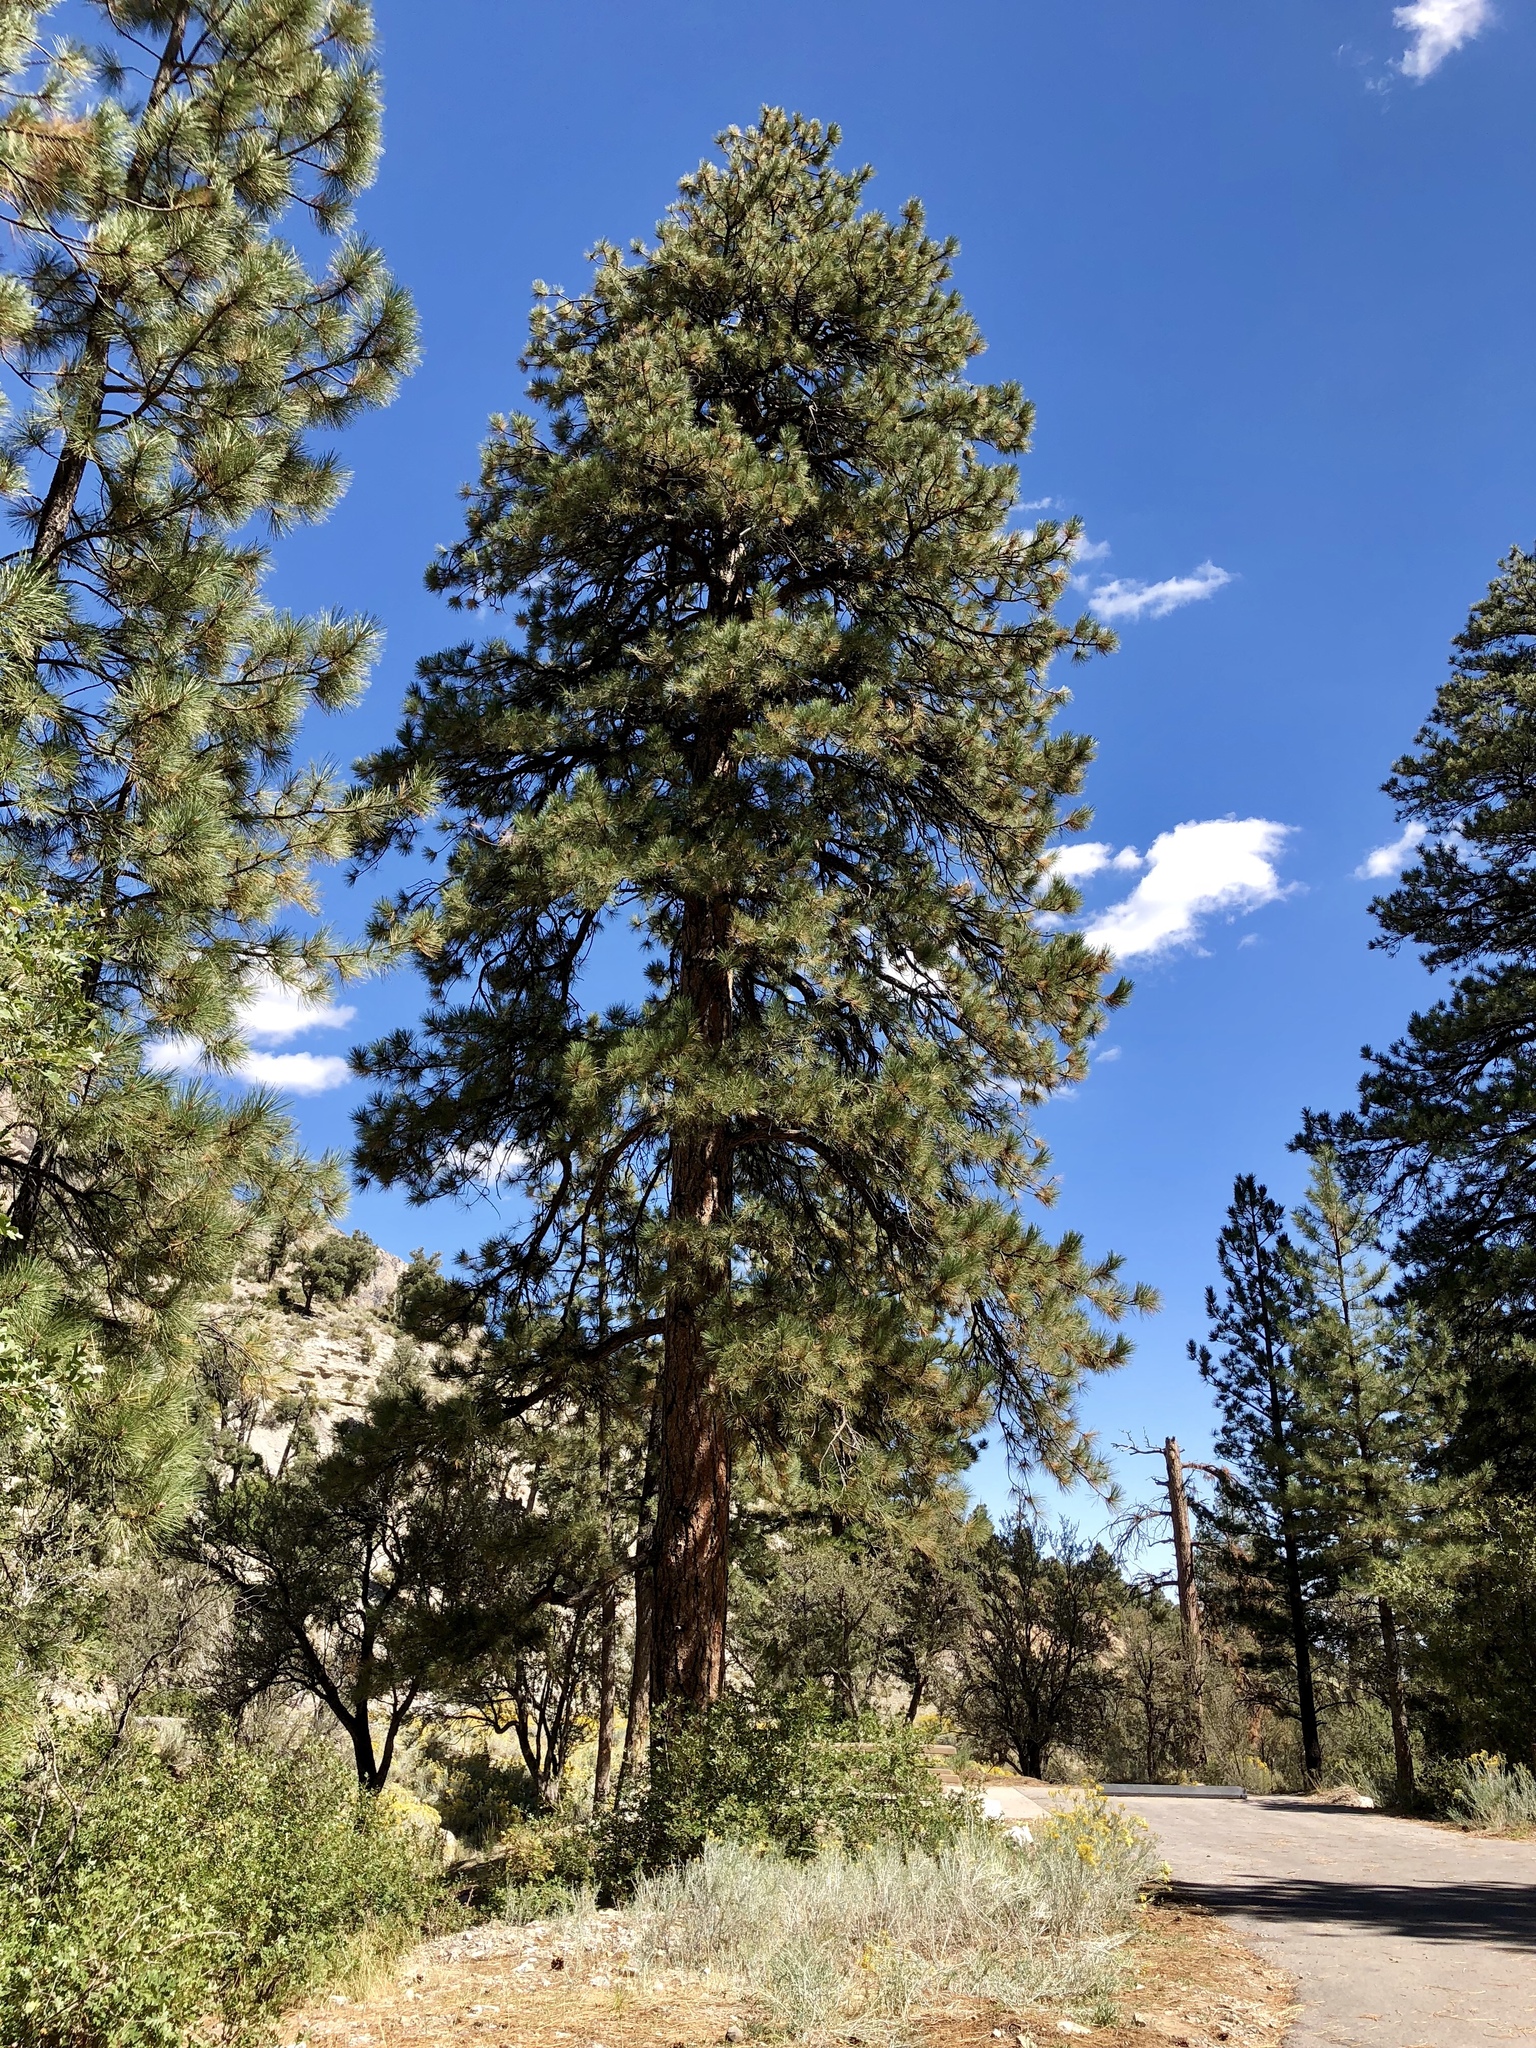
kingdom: Plantae
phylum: Tracheophyta
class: Pinopsida
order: Pinales
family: Pinaceae
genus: Pinus
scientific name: Pinus ponderosa
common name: Western yellow-pine
